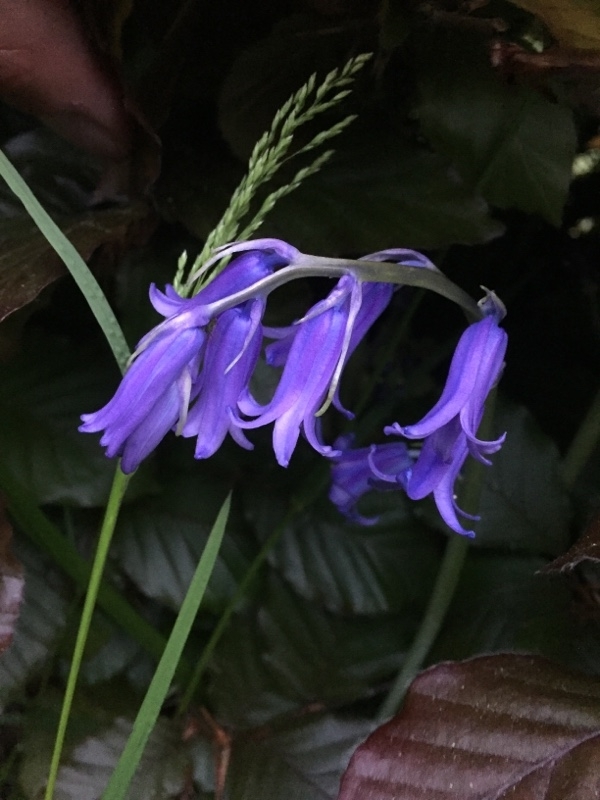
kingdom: Plantae
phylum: Tracheophyta
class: Liliopsida
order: Asparagales
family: Asparagaceae
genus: Hyacinthoides
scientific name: Hyacinthoides non-scripta
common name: Bluebell
